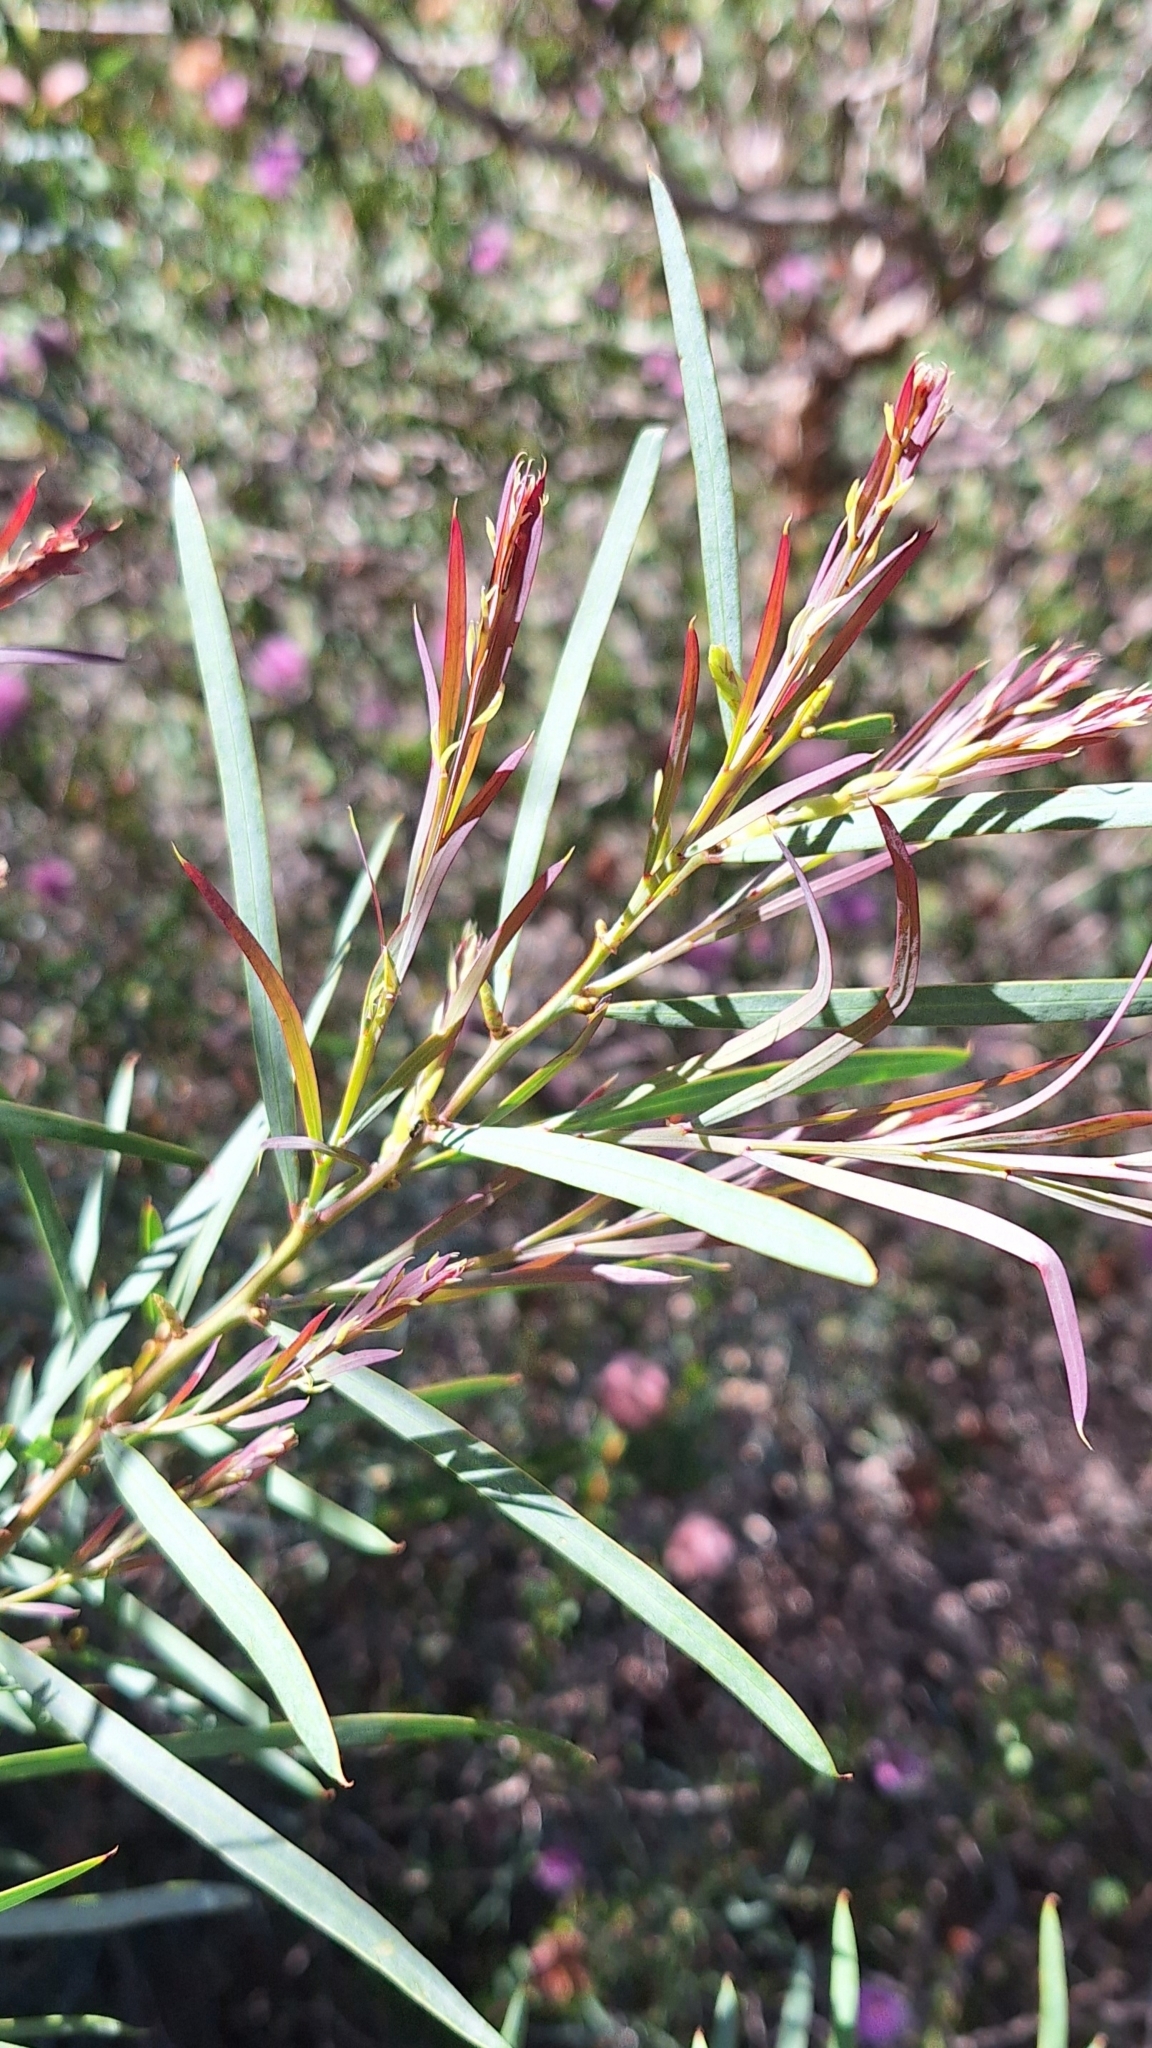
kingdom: Plantae
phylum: Tracheophyta
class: Magnoliopsida
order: Fabales
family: Fabaceae
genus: Acacia
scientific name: Acacia iteaphylla
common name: Flinders ranges wattle
